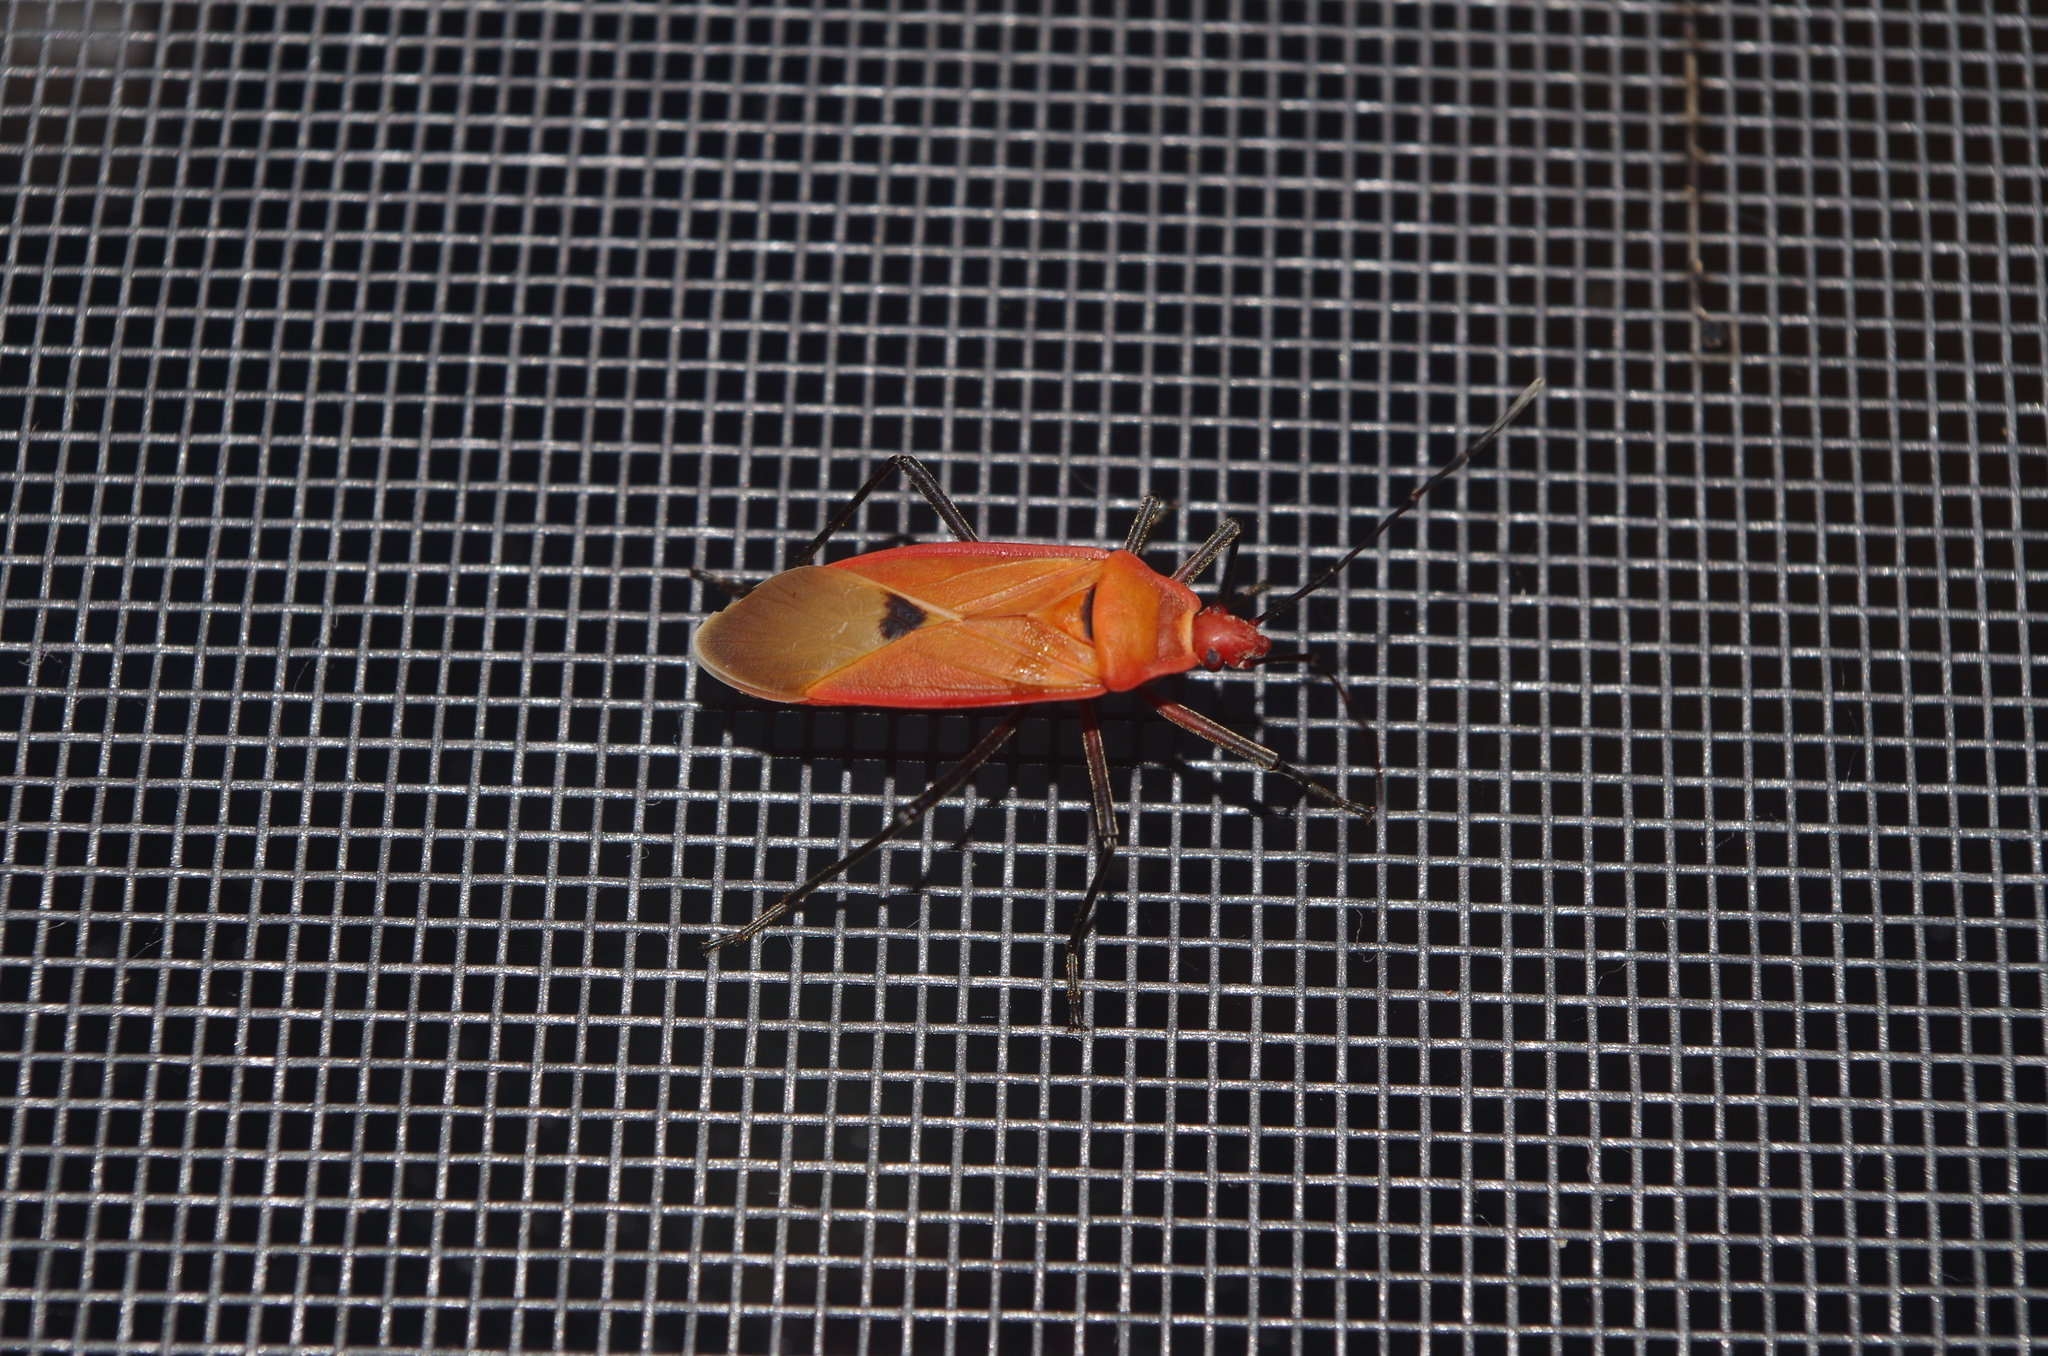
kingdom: Animalia
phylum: Arthropoda
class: Insecta
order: Hemiptera
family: Pyrrhocoridae
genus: Dysdercus
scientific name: Dysdercus fuscomaculatus
